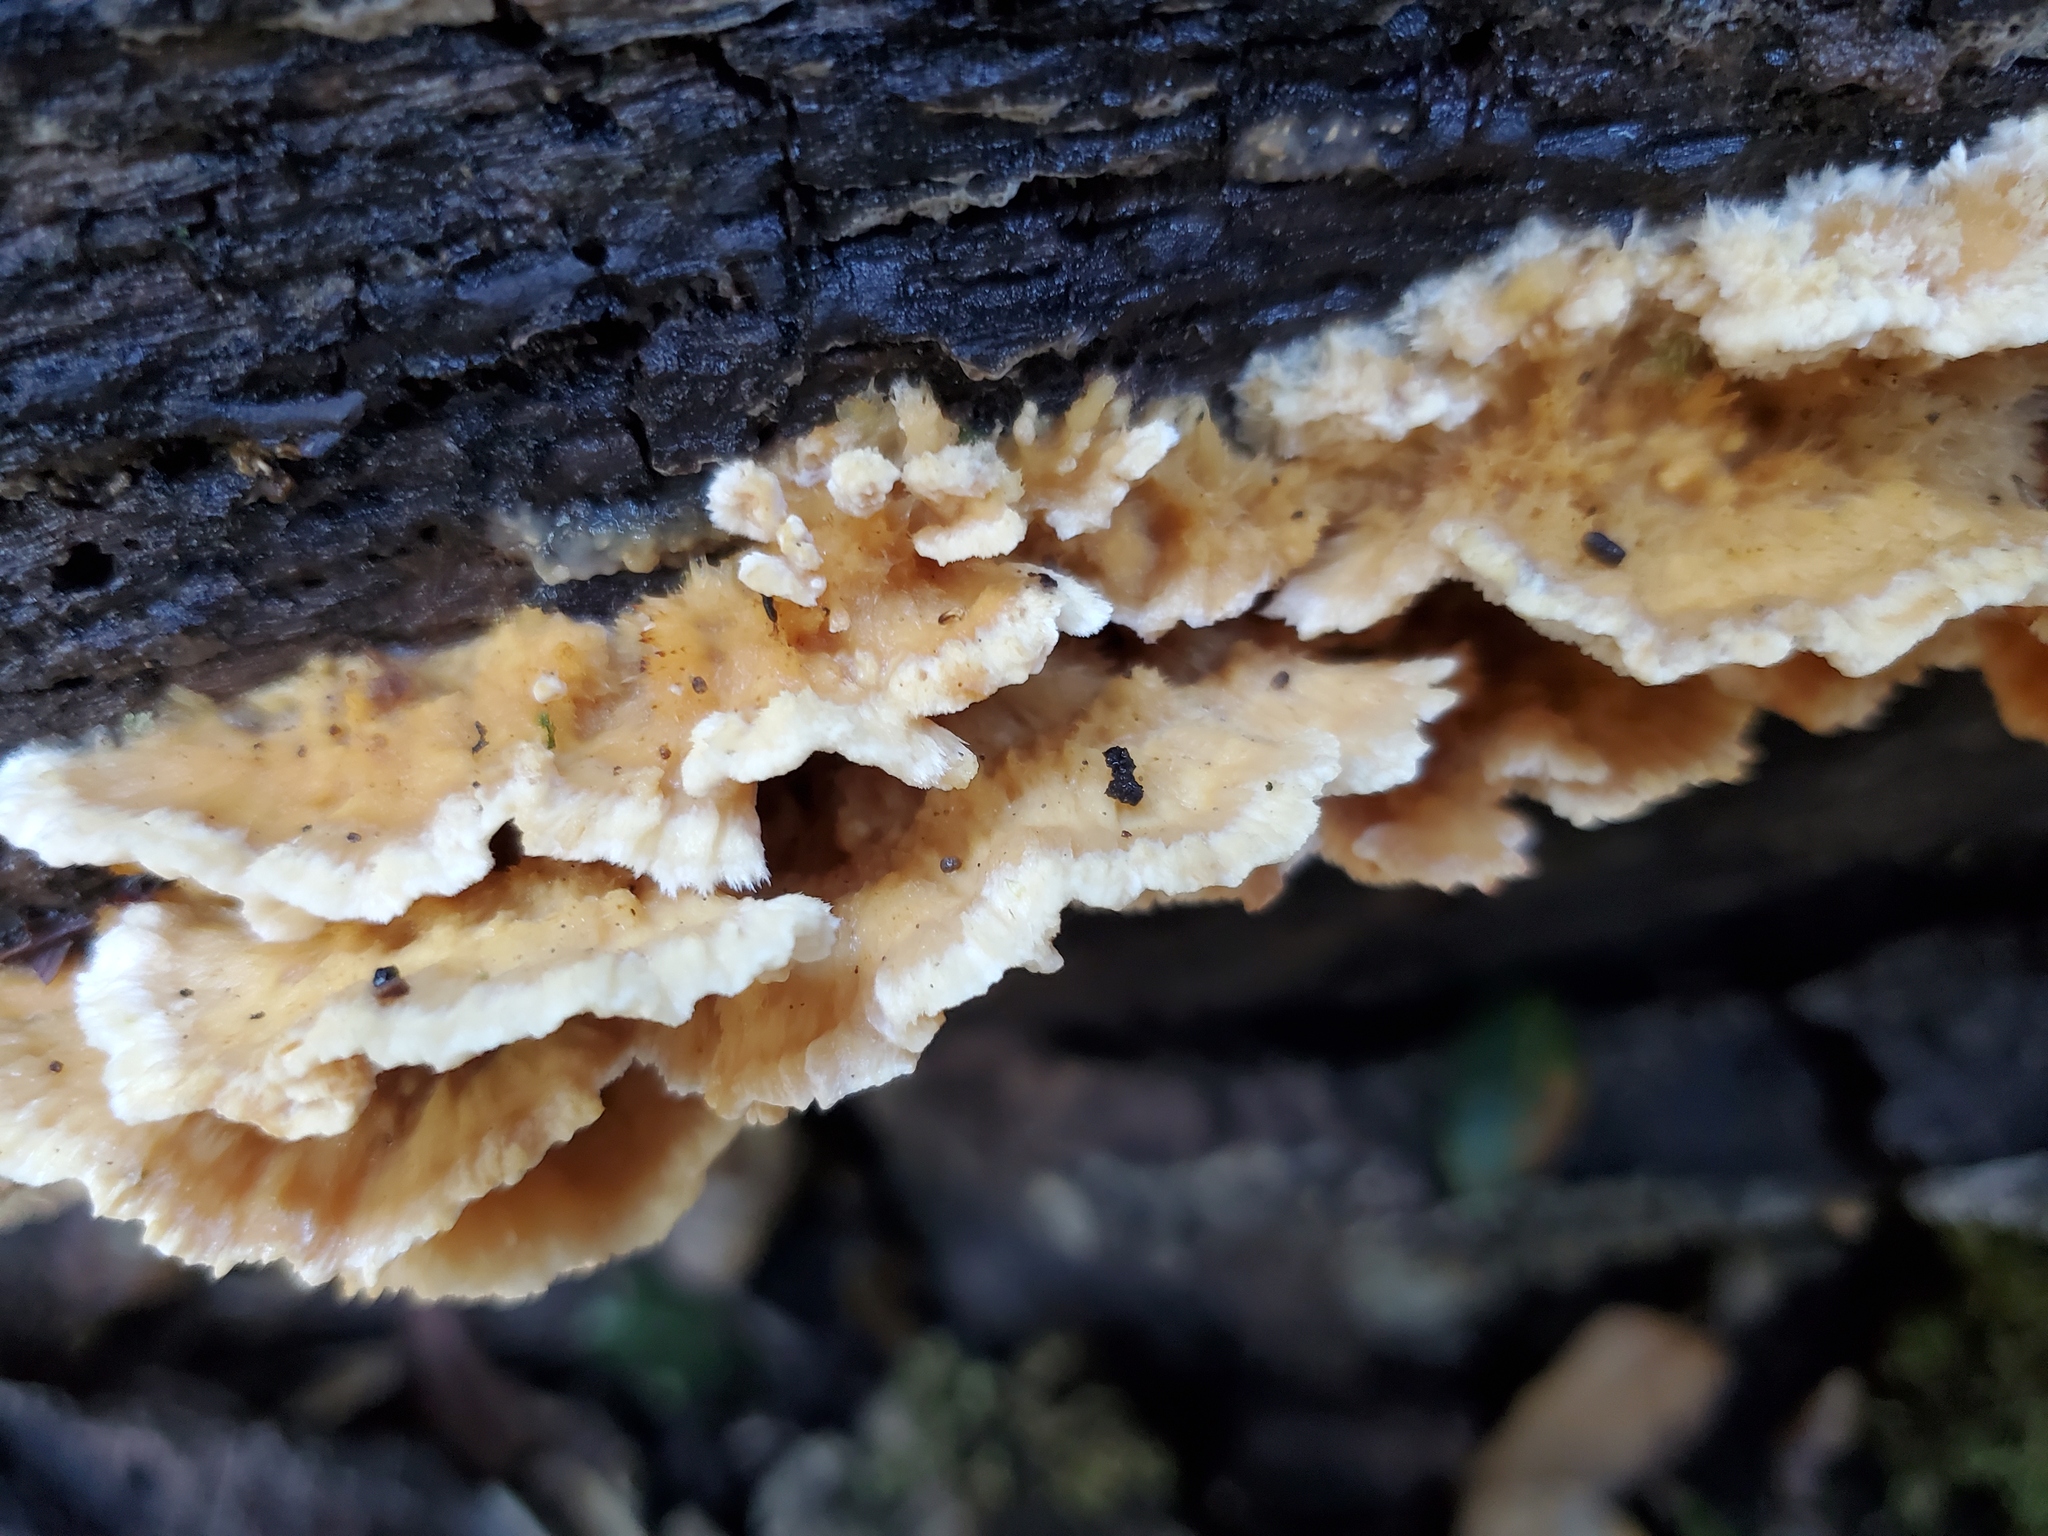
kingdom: Fungi
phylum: Basidiomycota
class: Agaricomycetes
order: Polyporales
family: Irpicaceae
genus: Trametopsis
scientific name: Trametopsis cervina
